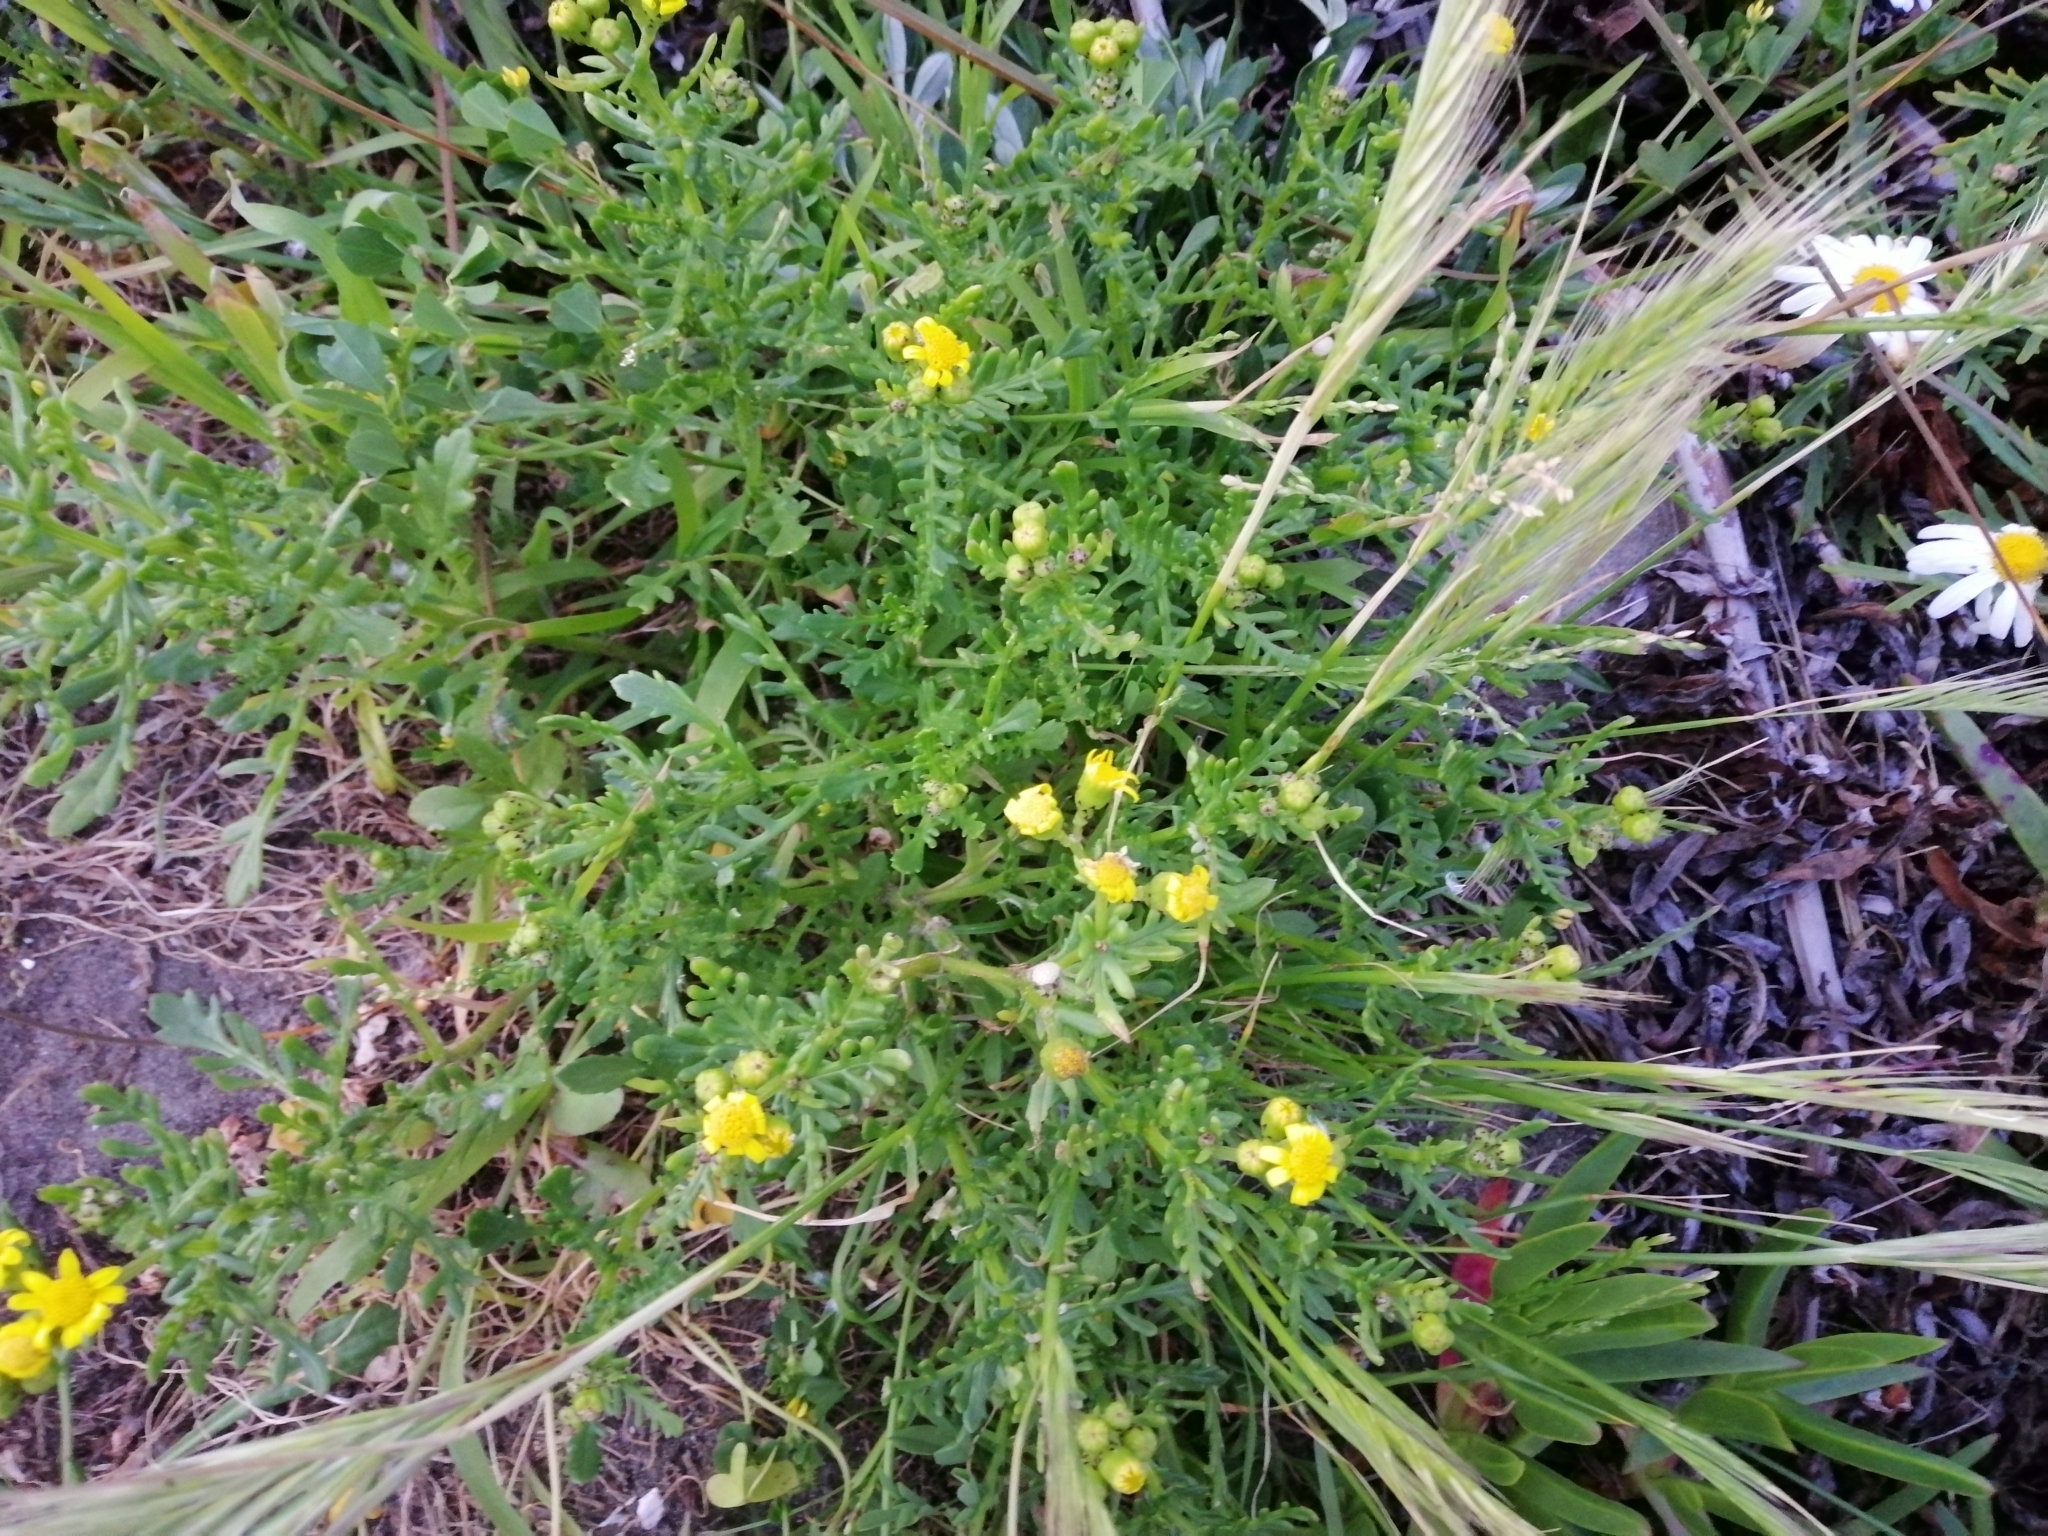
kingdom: Plantae
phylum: Tracheophyta
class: Liliopsida
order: Poales
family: Poaceae
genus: Hordeum
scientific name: Hordeum murinum
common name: Wall barley
